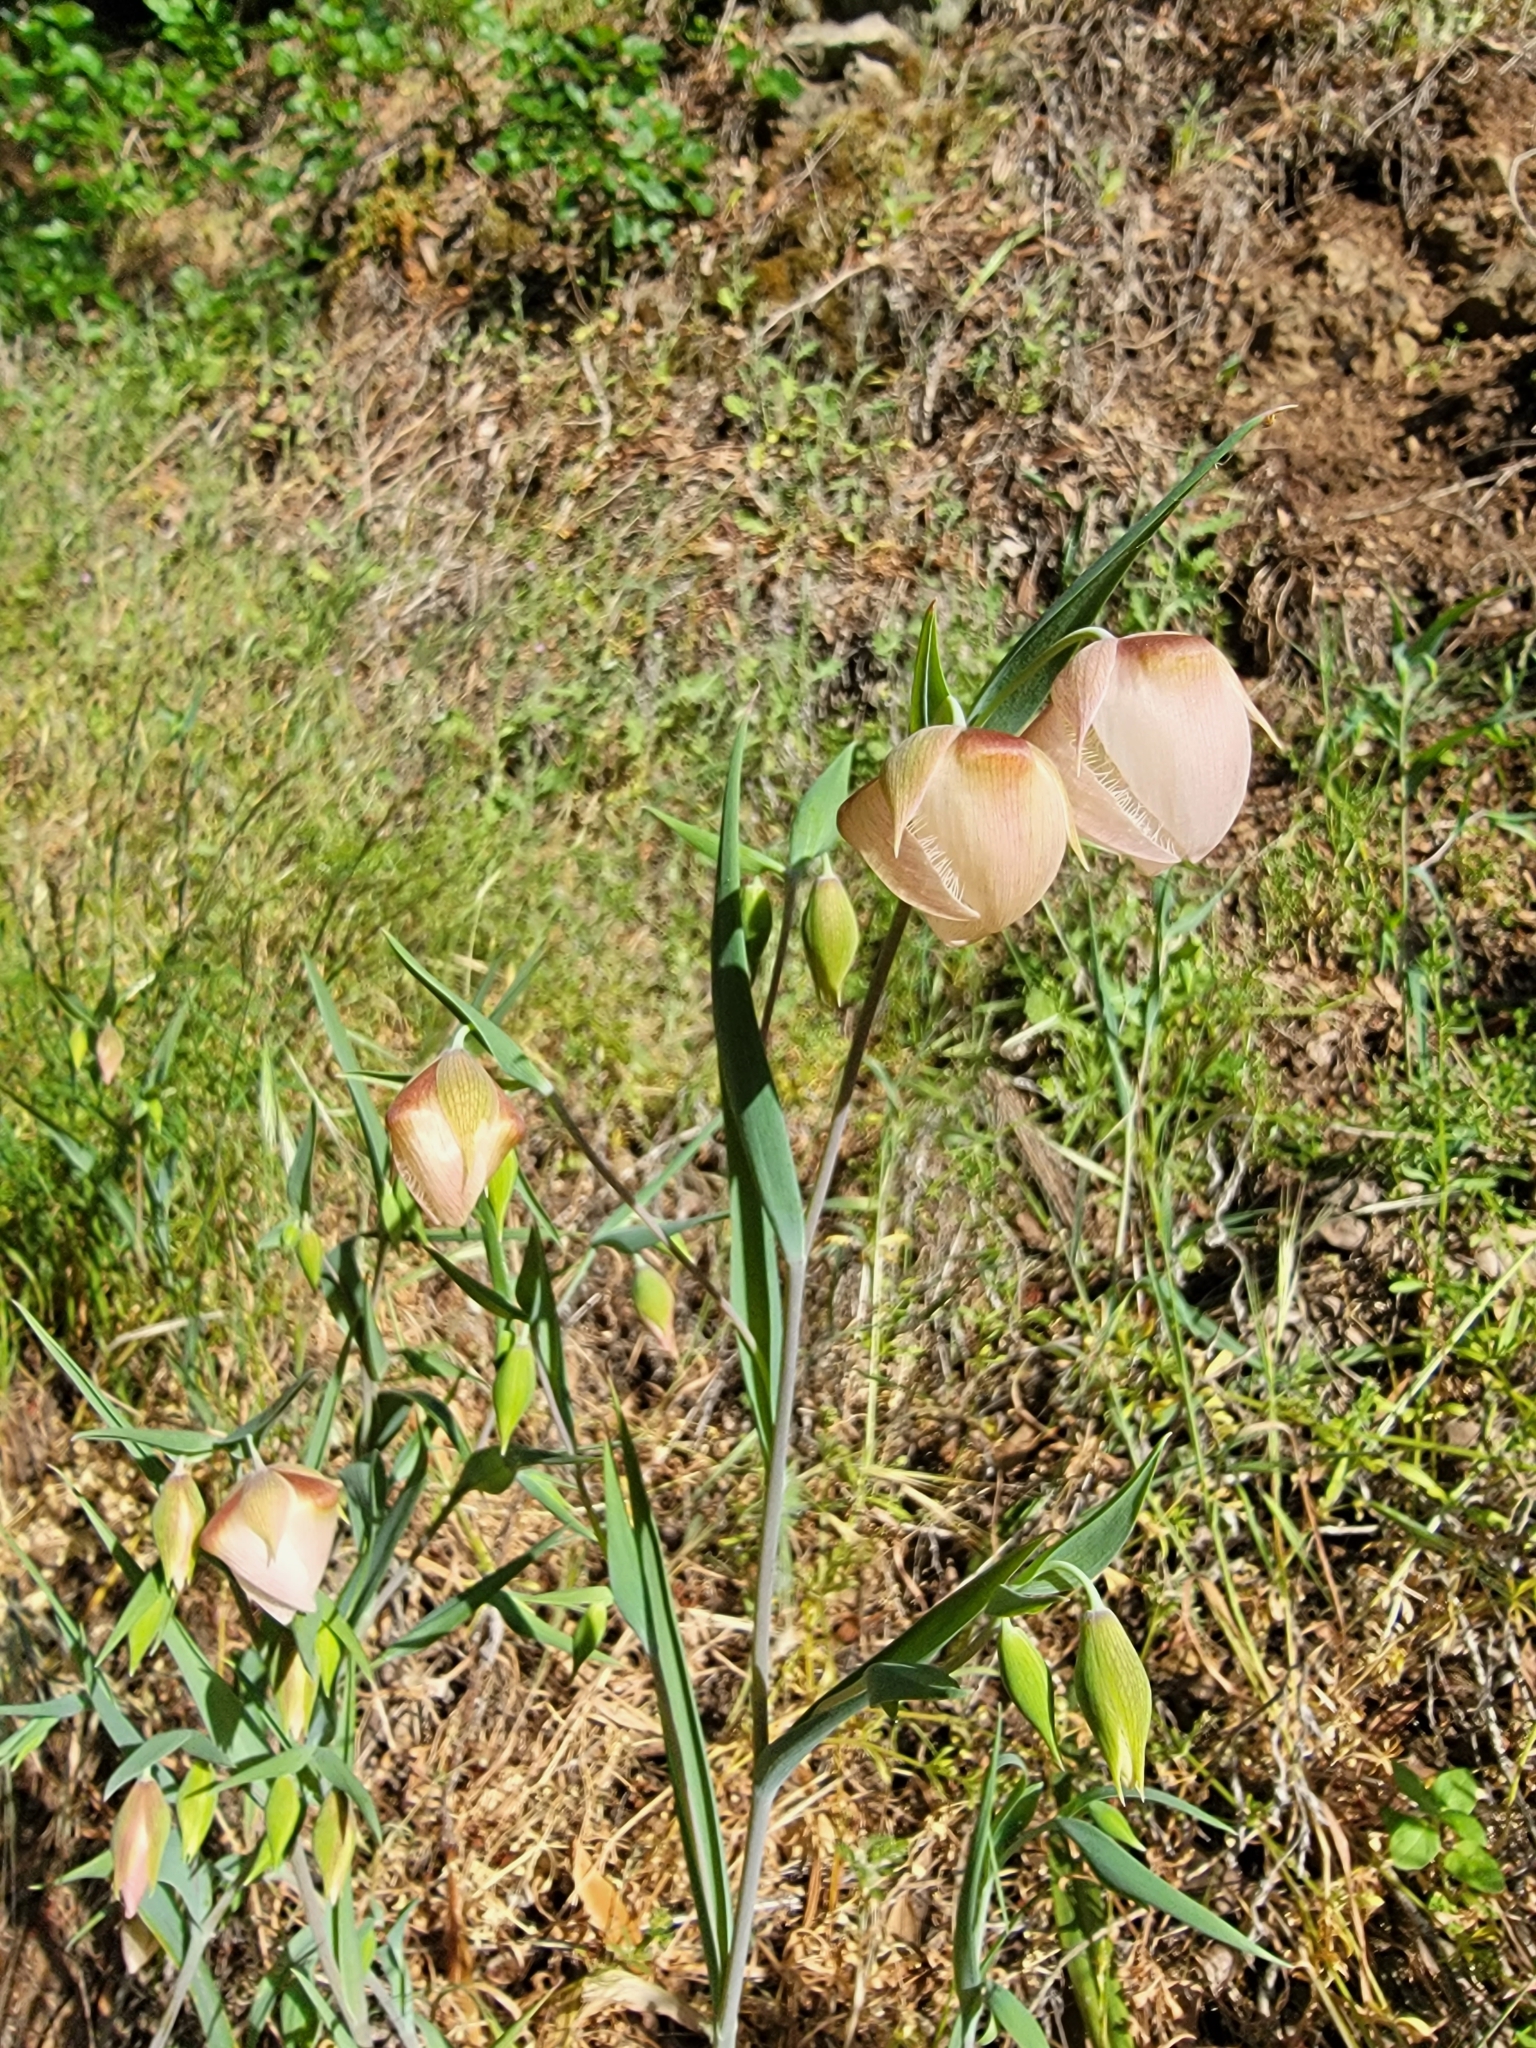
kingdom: Plantae
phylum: Tracheophyta
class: Liliopsida
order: Liliales
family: Liliaceae
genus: Calochortus
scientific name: Calochortus albus
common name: Fairy-lantern
